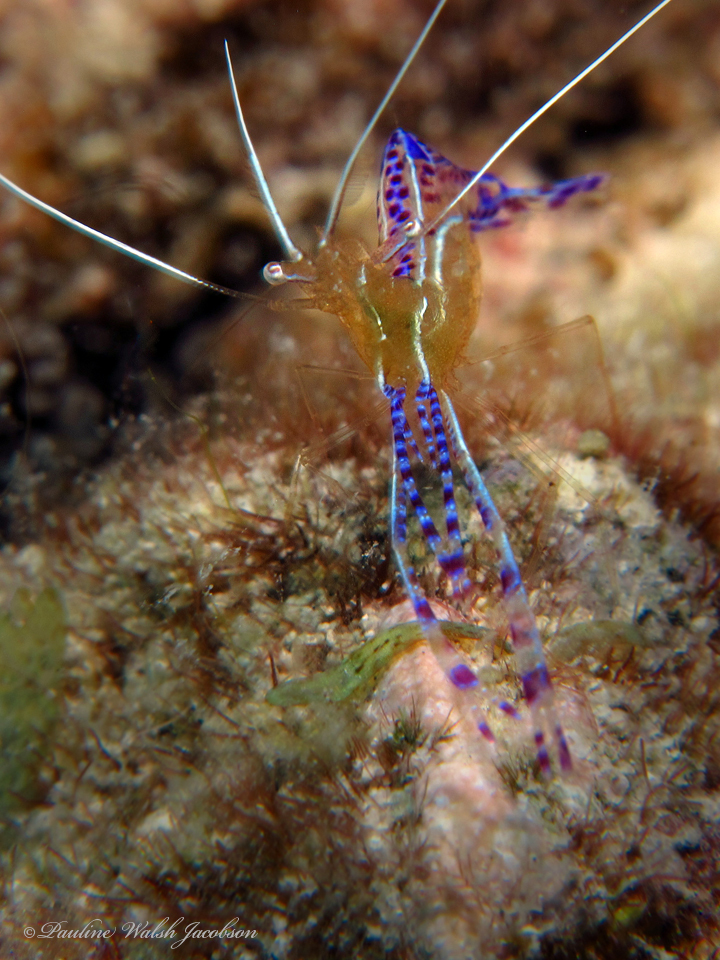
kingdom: Animalia
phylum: Arthropoda
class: Malacostraca
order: Decapoda
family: Palaemonidae
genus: Ancylomenes
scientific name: Ancylomenes pedersoni
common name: Pederson's cleaning shrimp
